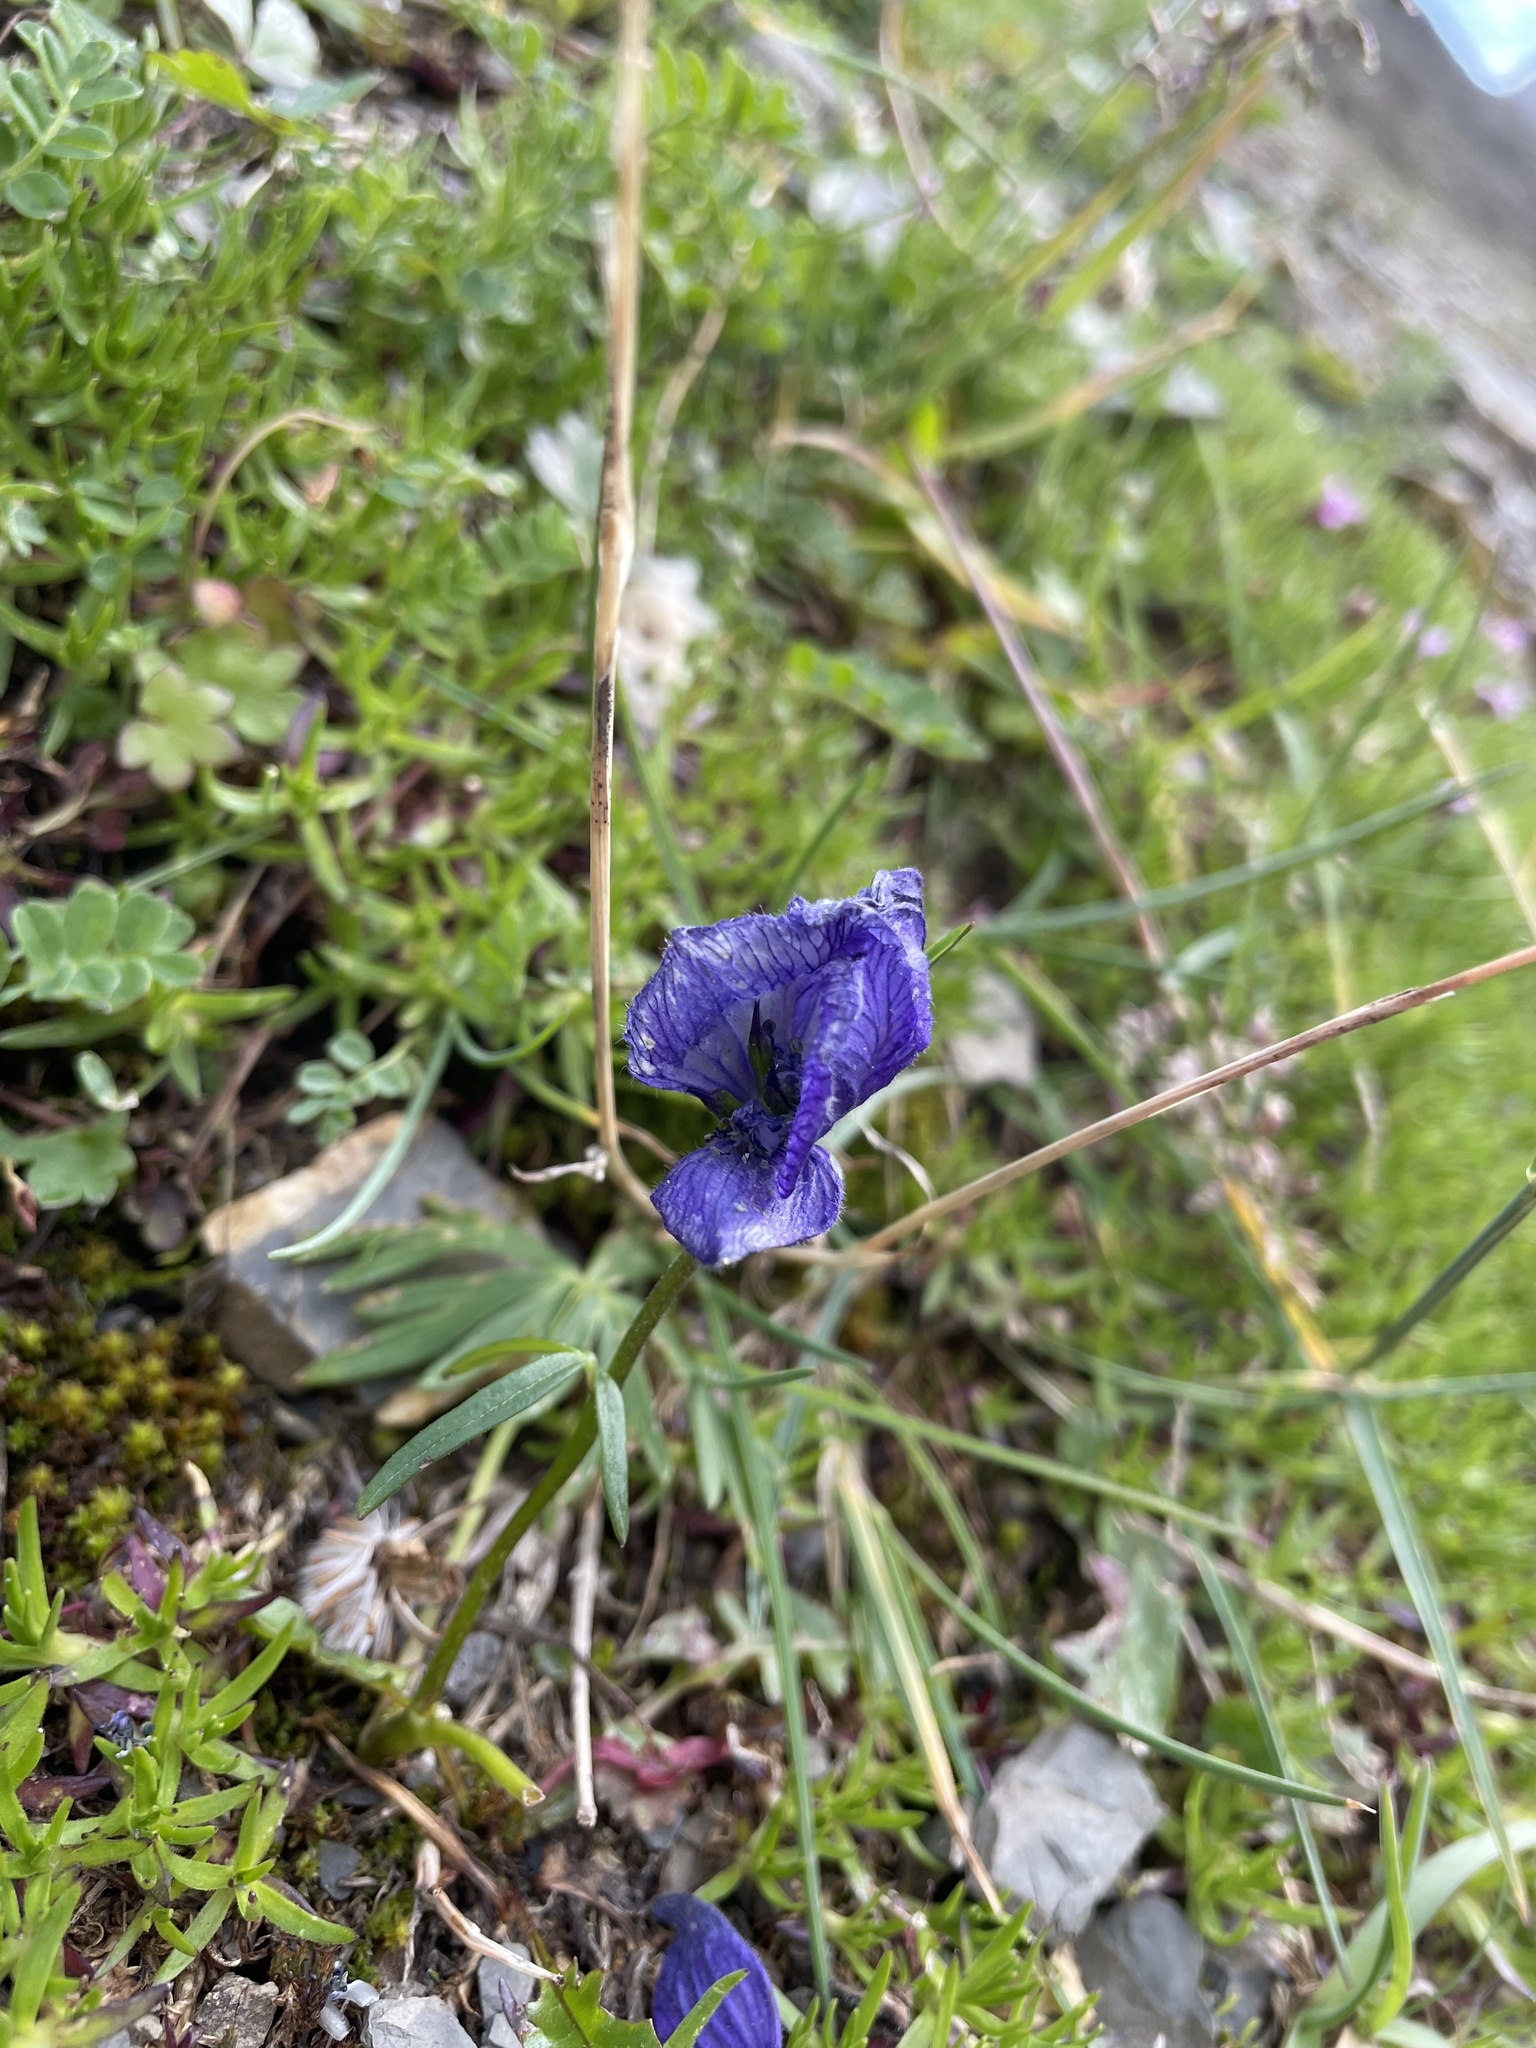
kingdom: Plantae
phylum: Tracheophyta
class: Magnoliopsida
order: Ranunculales
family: Ranunculaceae
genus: Aconitum
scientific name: Aconitum delphiniifolium
